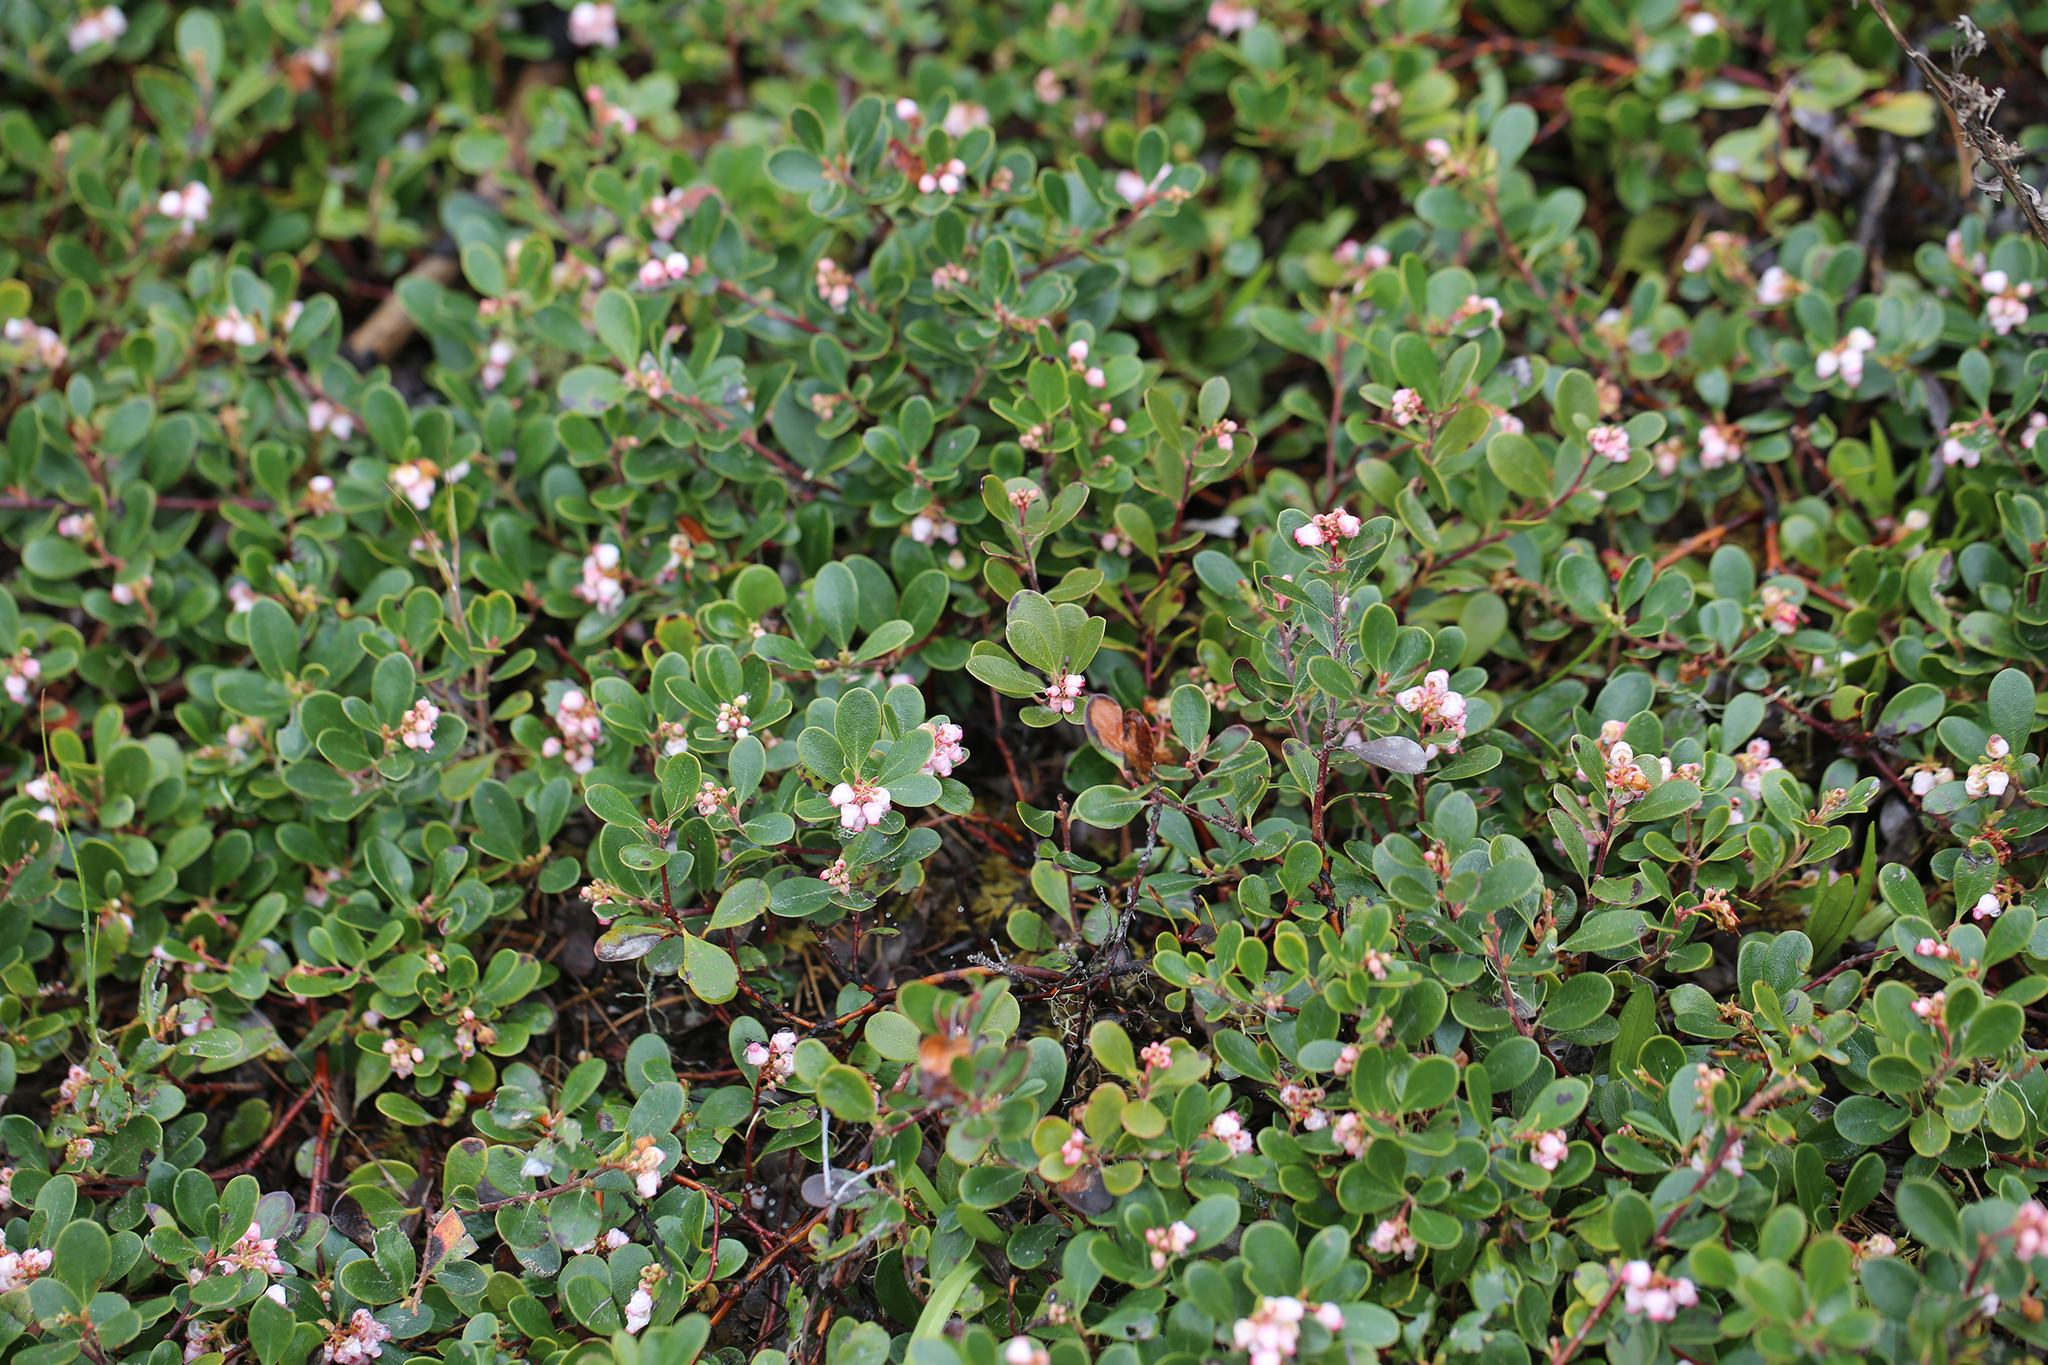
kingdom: Plantae
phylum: Tracheophyta
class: Magnoliopsida
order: Ericales
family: Ericaceae
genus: Arctostaphylos
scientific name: Arctostaphylos uva-ursi
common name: Bearberry
